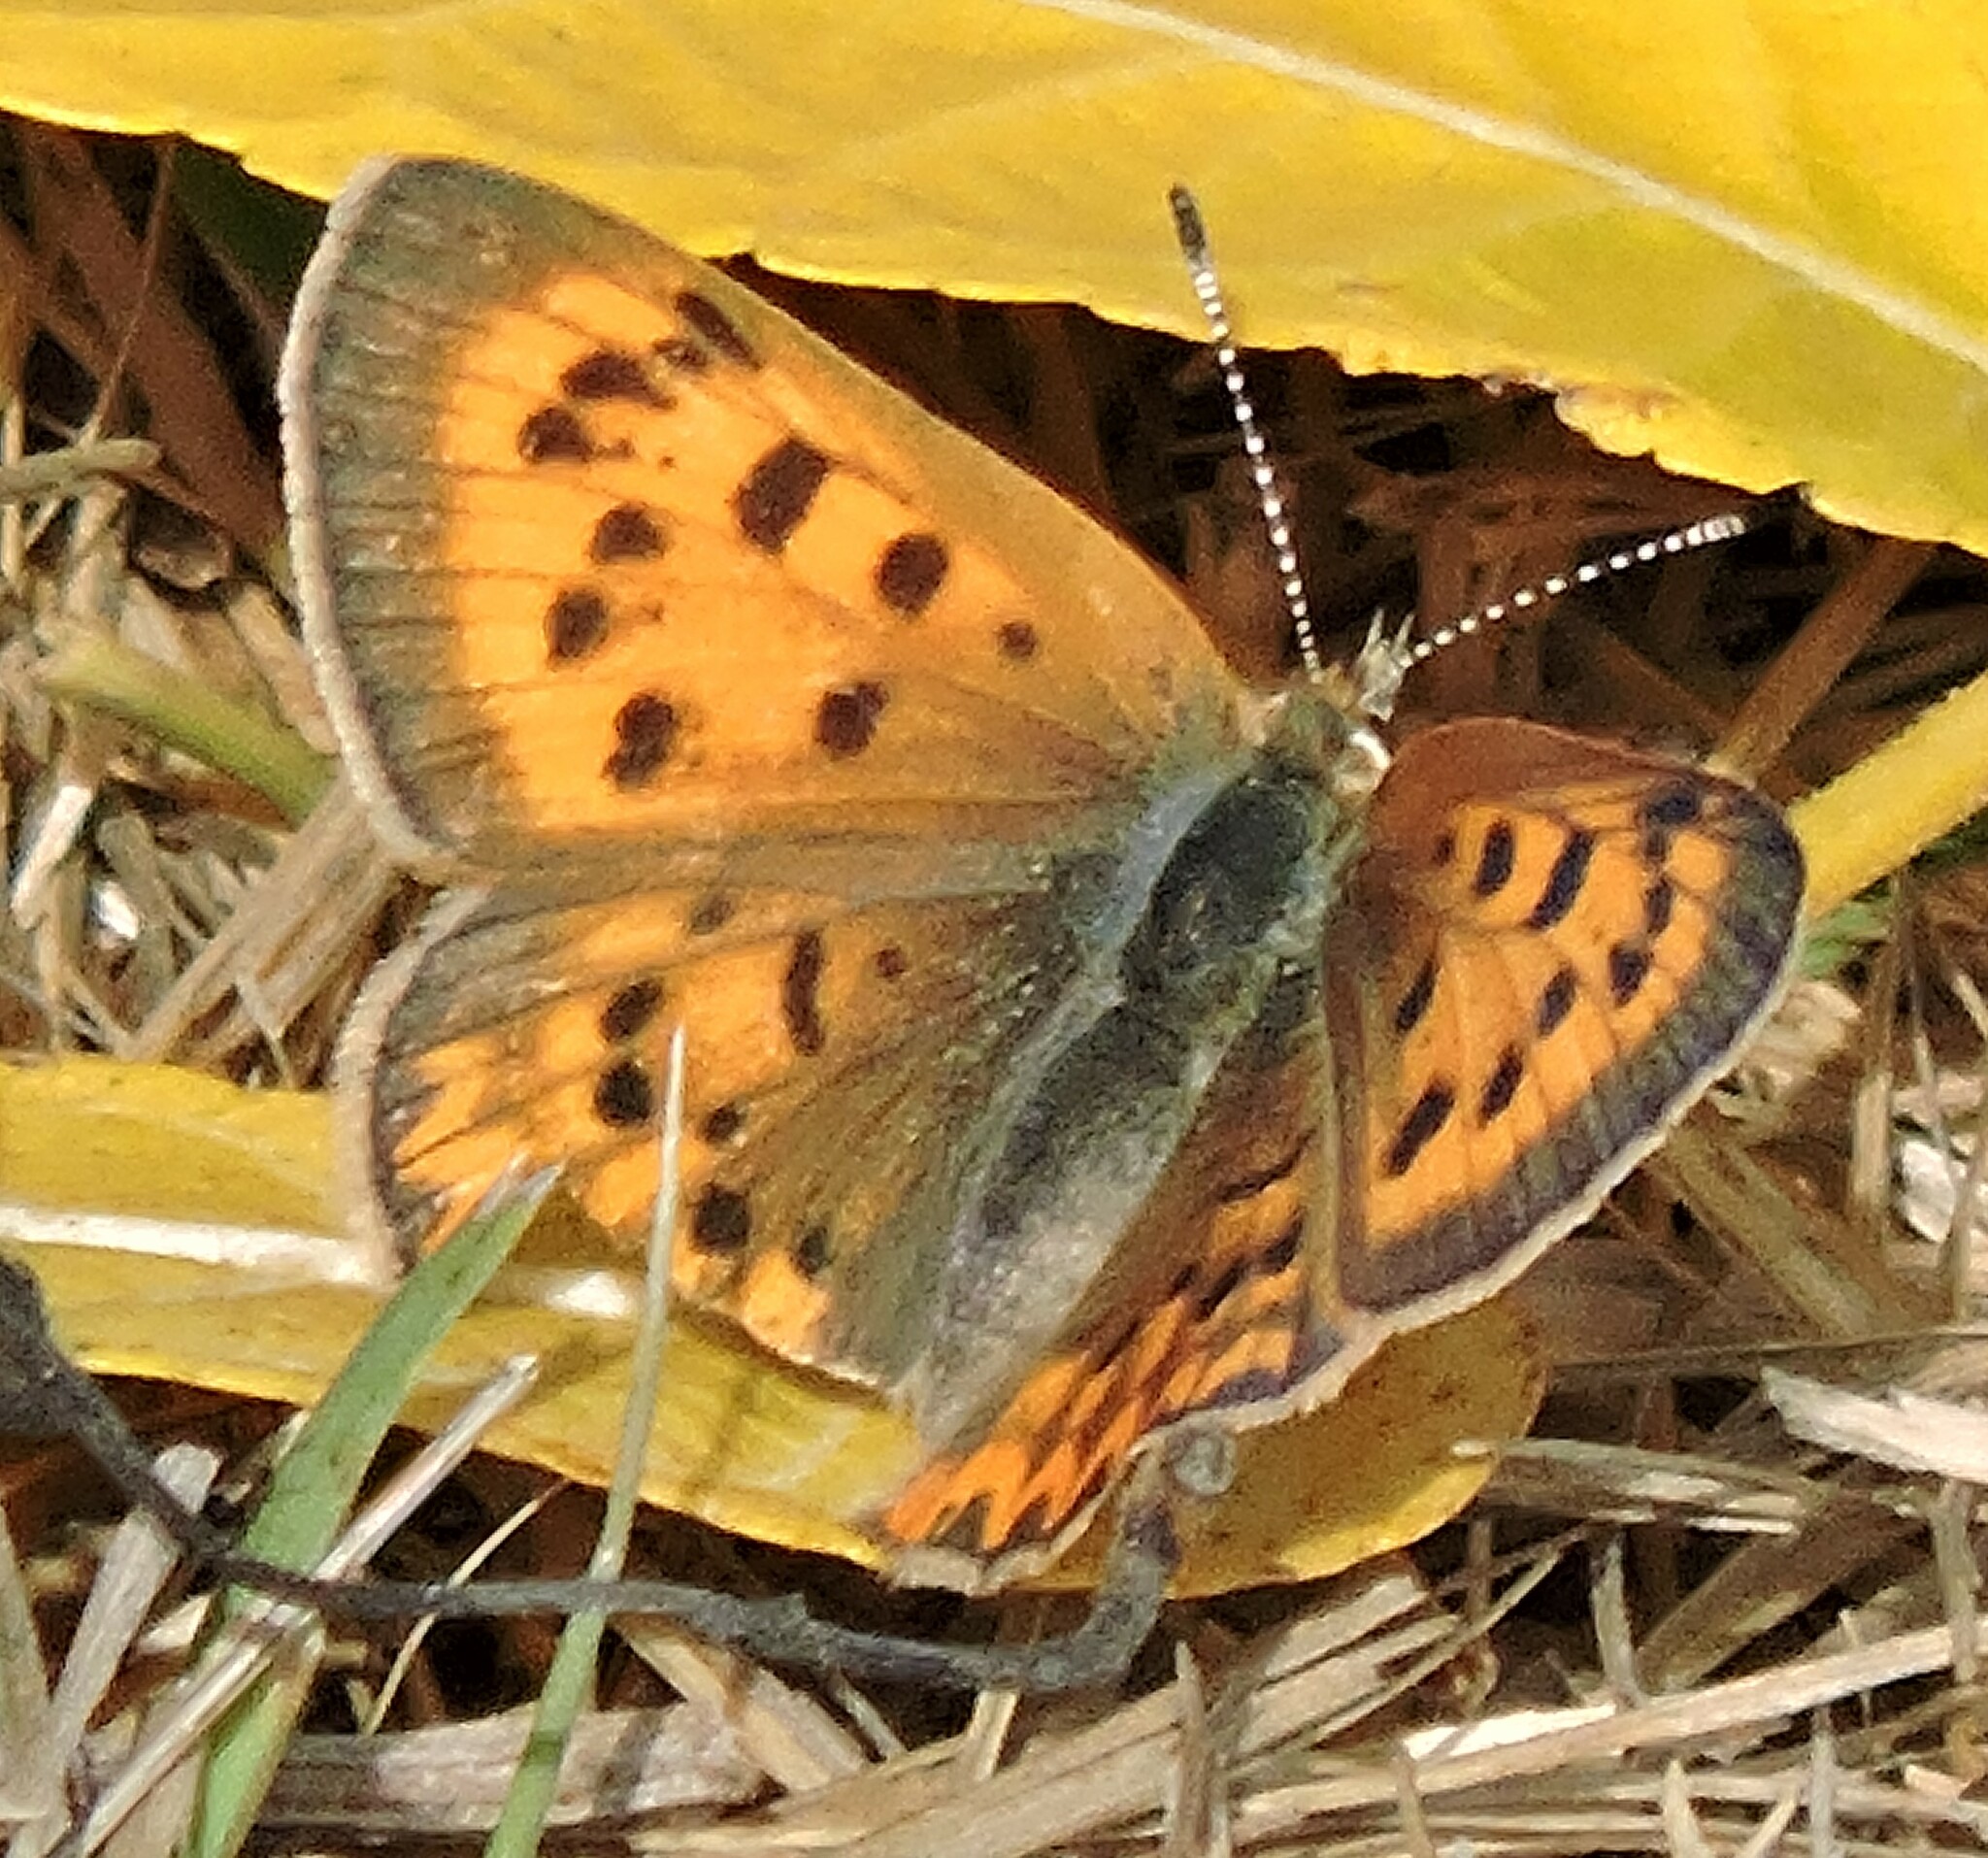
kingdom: Animalia
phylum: Arthropoda
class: Insecta
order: Lepidoptera
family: Lycaenidae
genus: Tharsalea
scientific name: Tharsalea helloides
